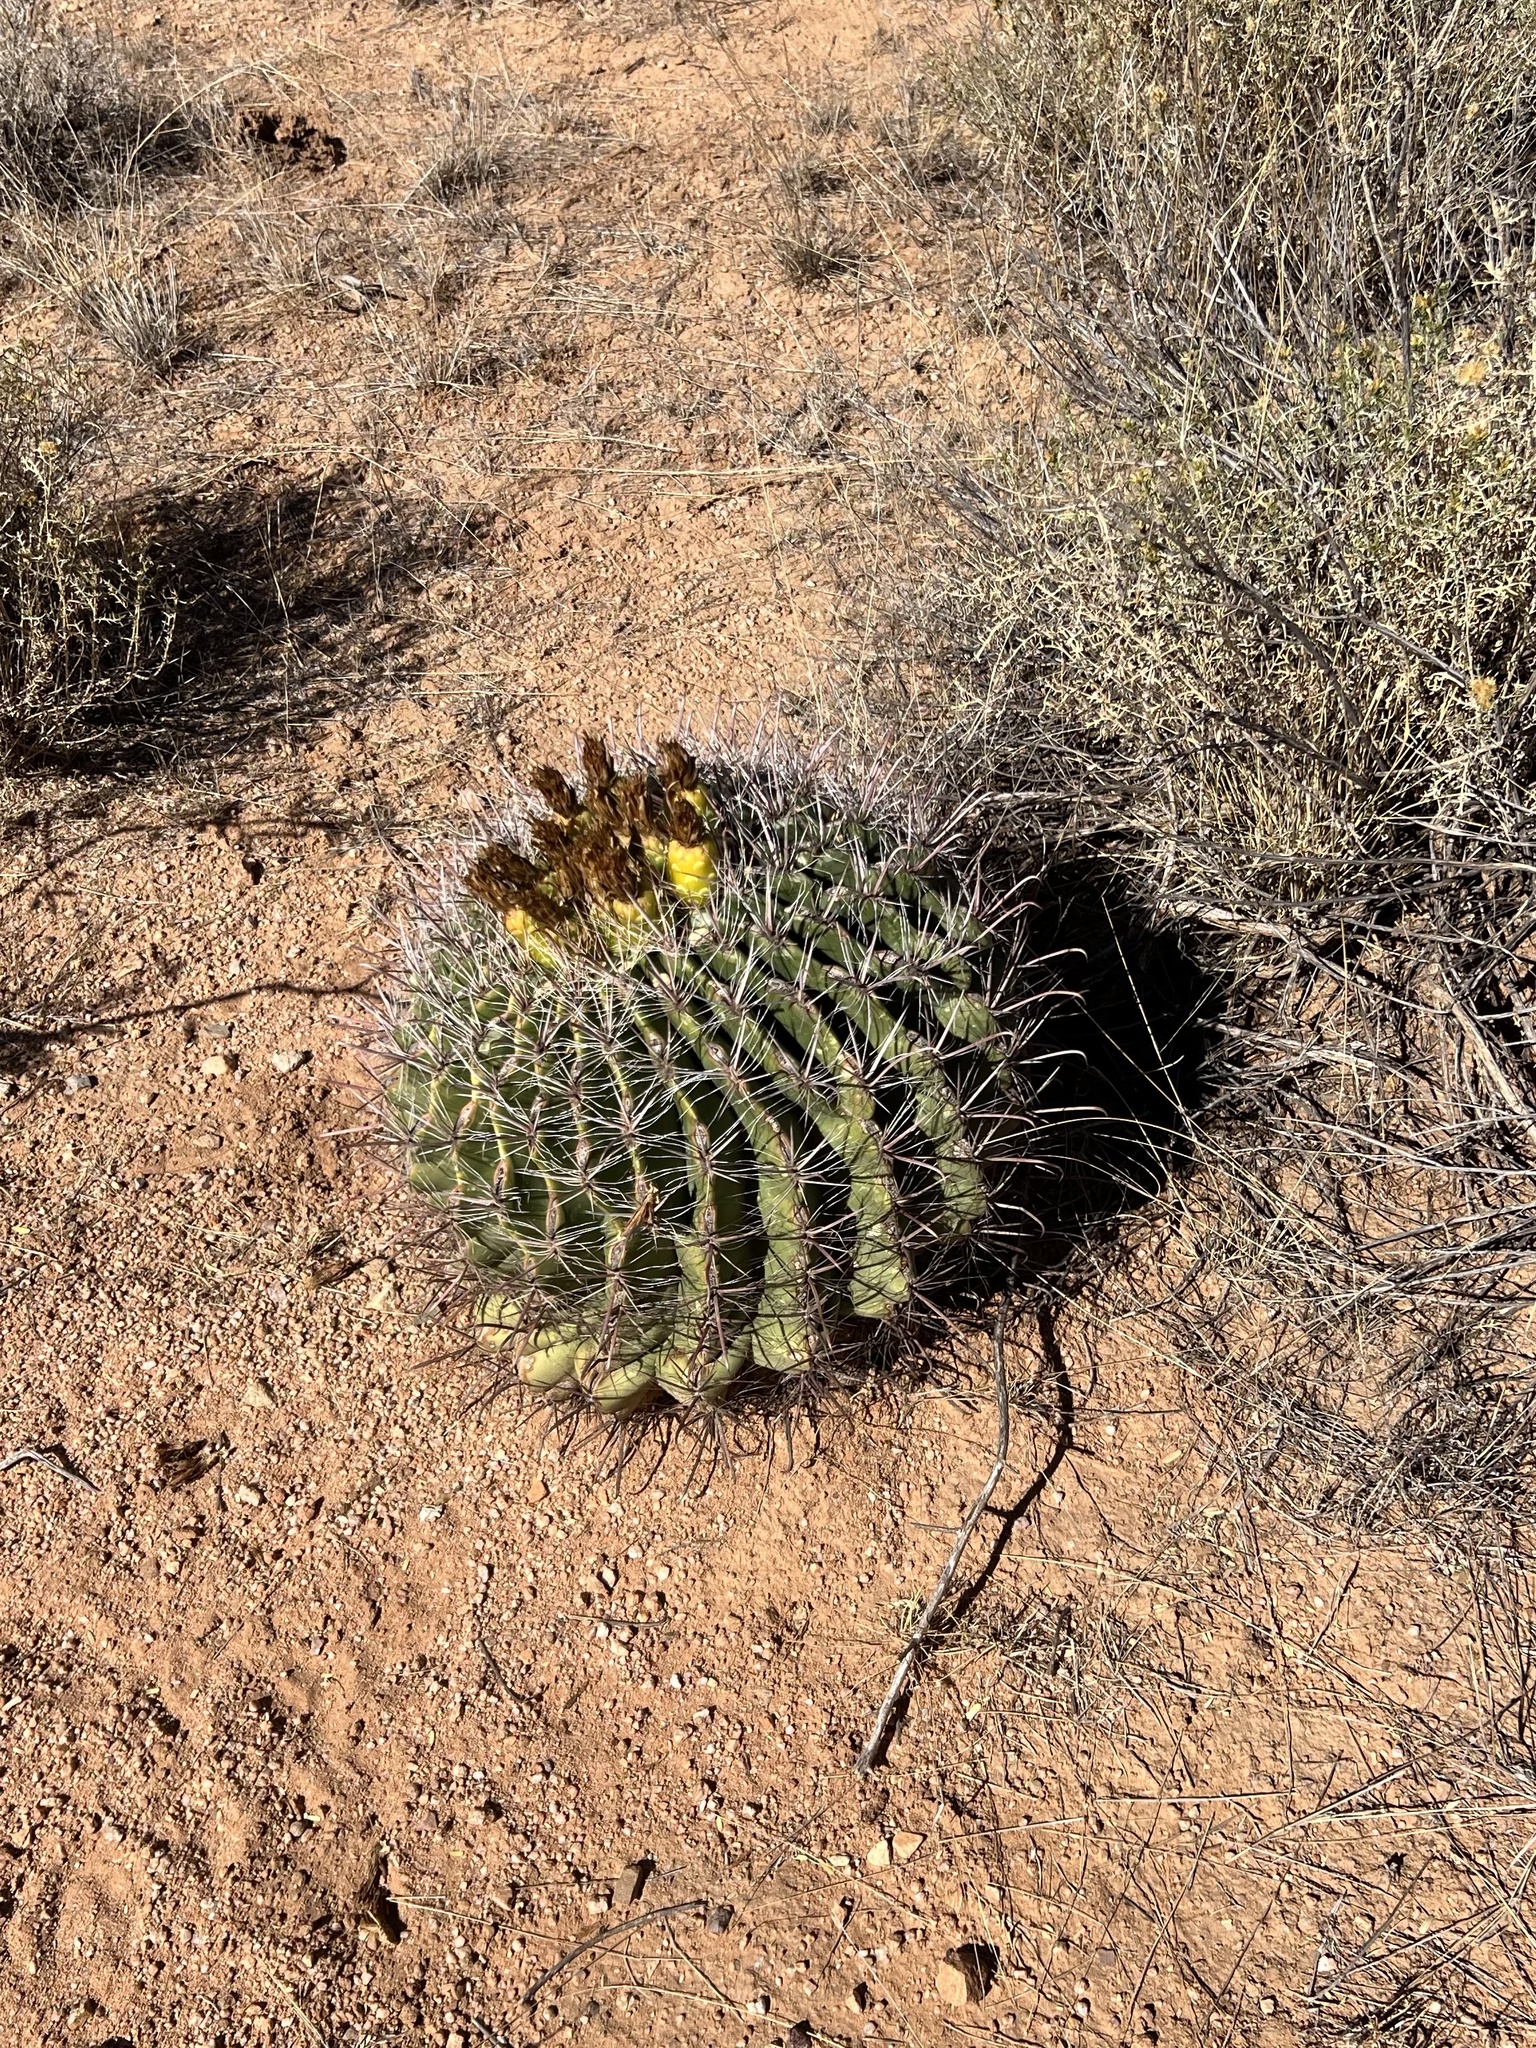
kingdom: Plantae
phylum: Tracheophyta
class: Magnoliopsida
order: Caryophyllales
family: Cactaceae
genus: Ferocactus
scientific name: Ferocactus wislizeni
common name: Candy barrel cactus
